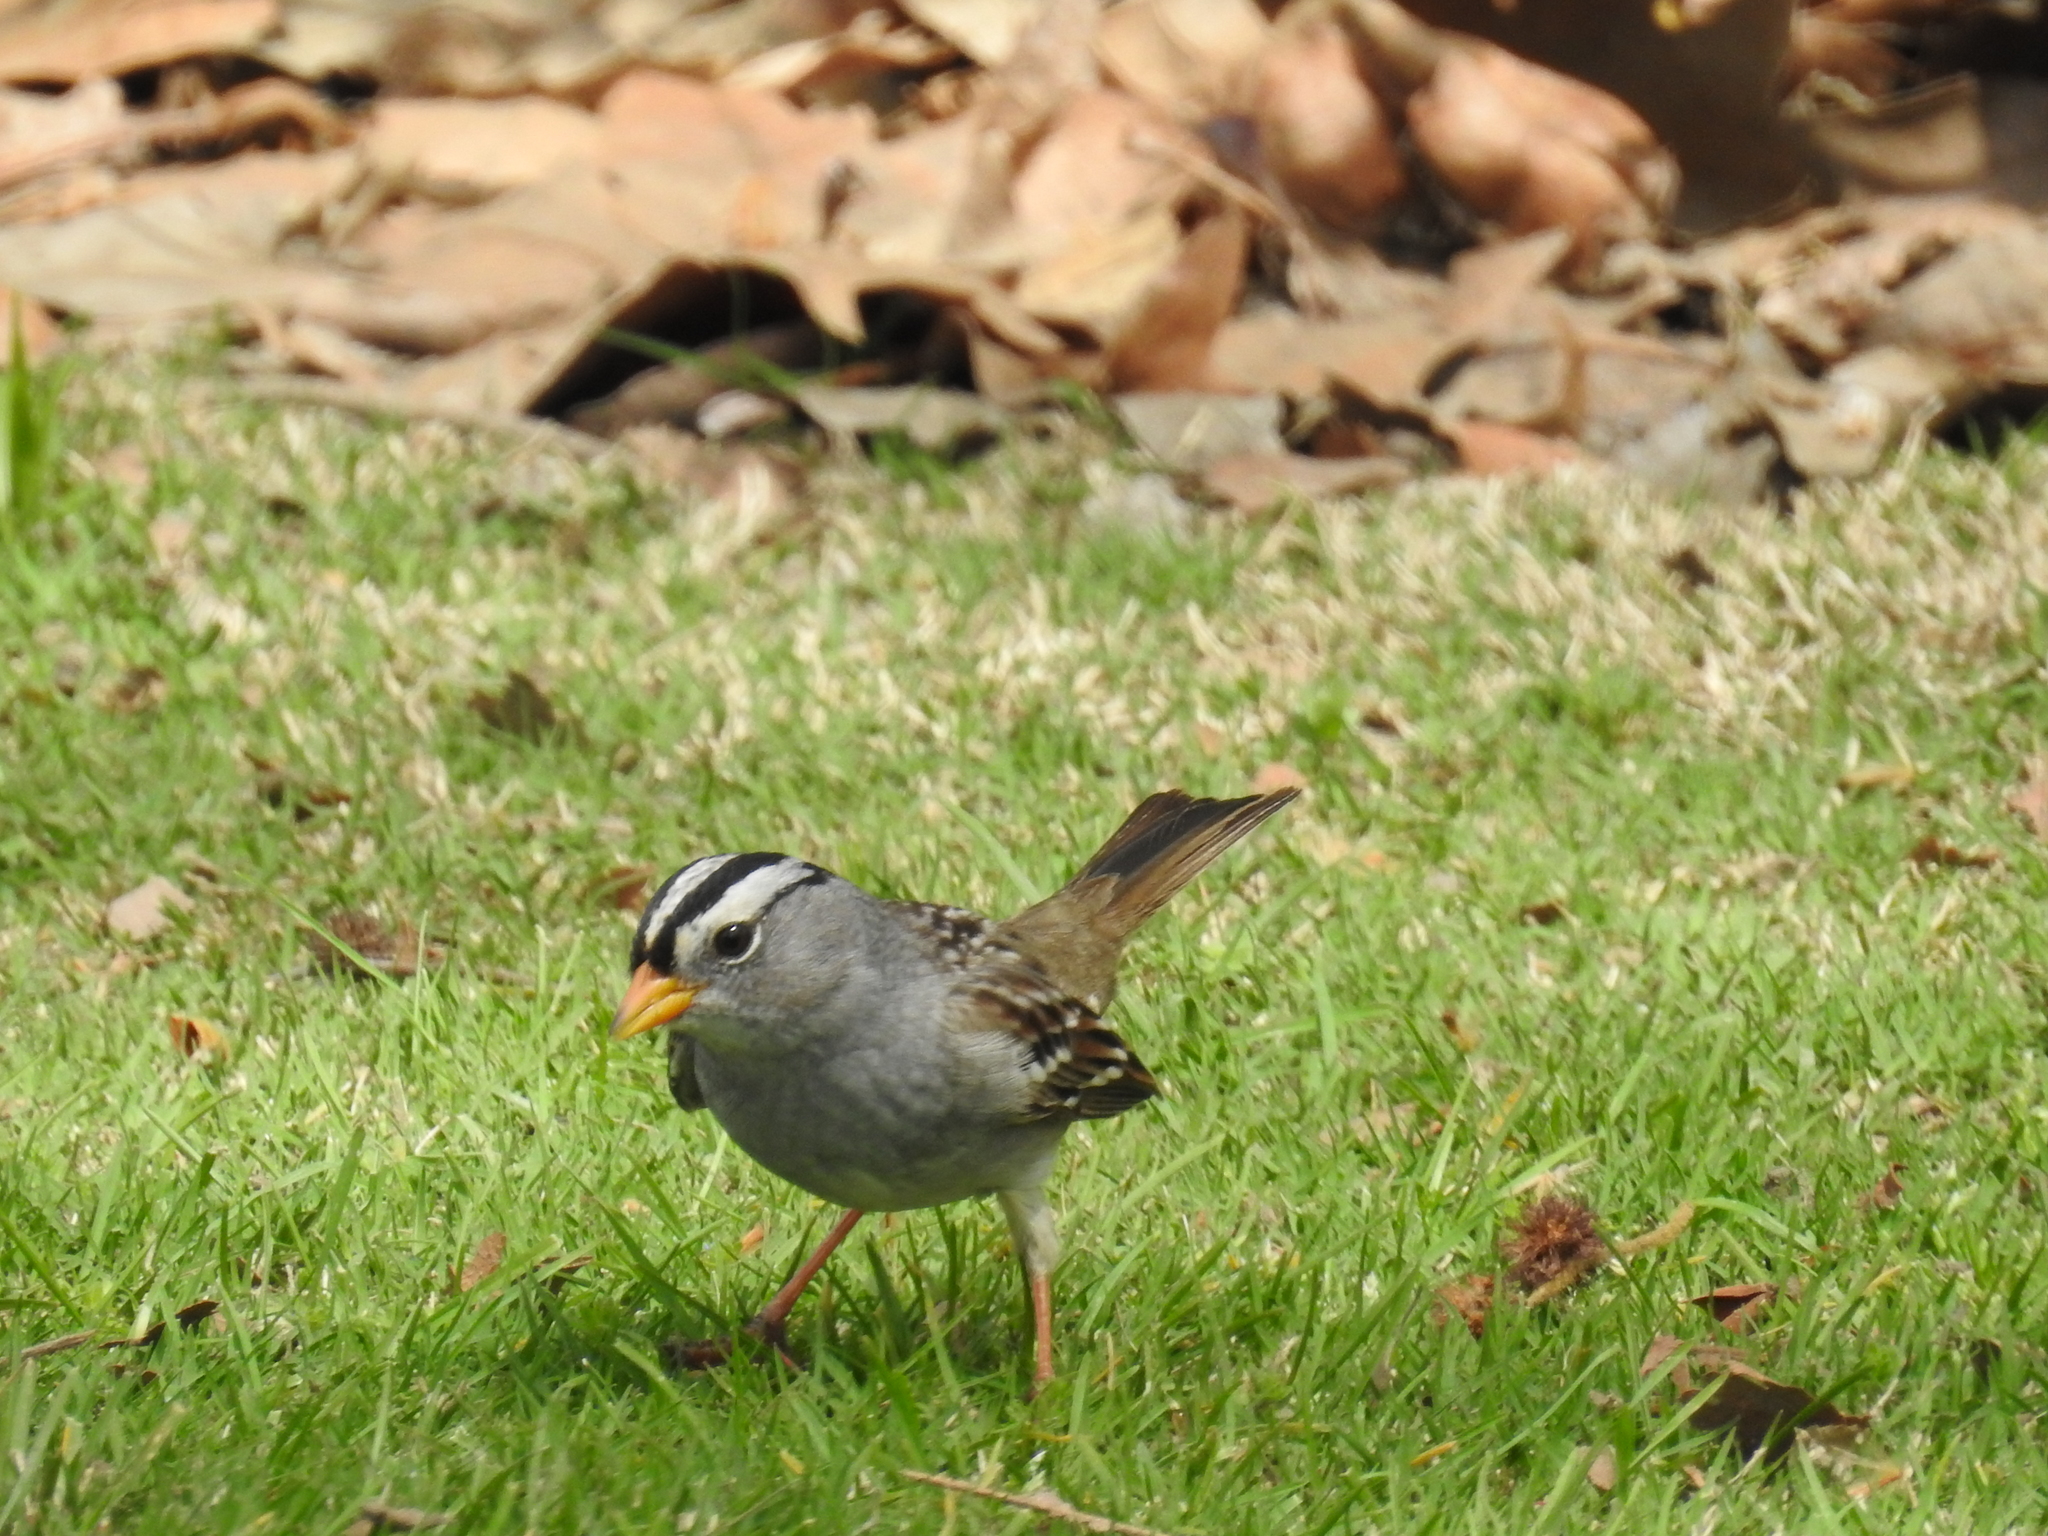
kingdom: Animalia
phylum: Chordata
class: Aves
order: Passeriformes
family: Passerellidae
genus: Zonotrichia
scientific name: Zonotrichia leucophrys
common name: White-crowned sparrow
